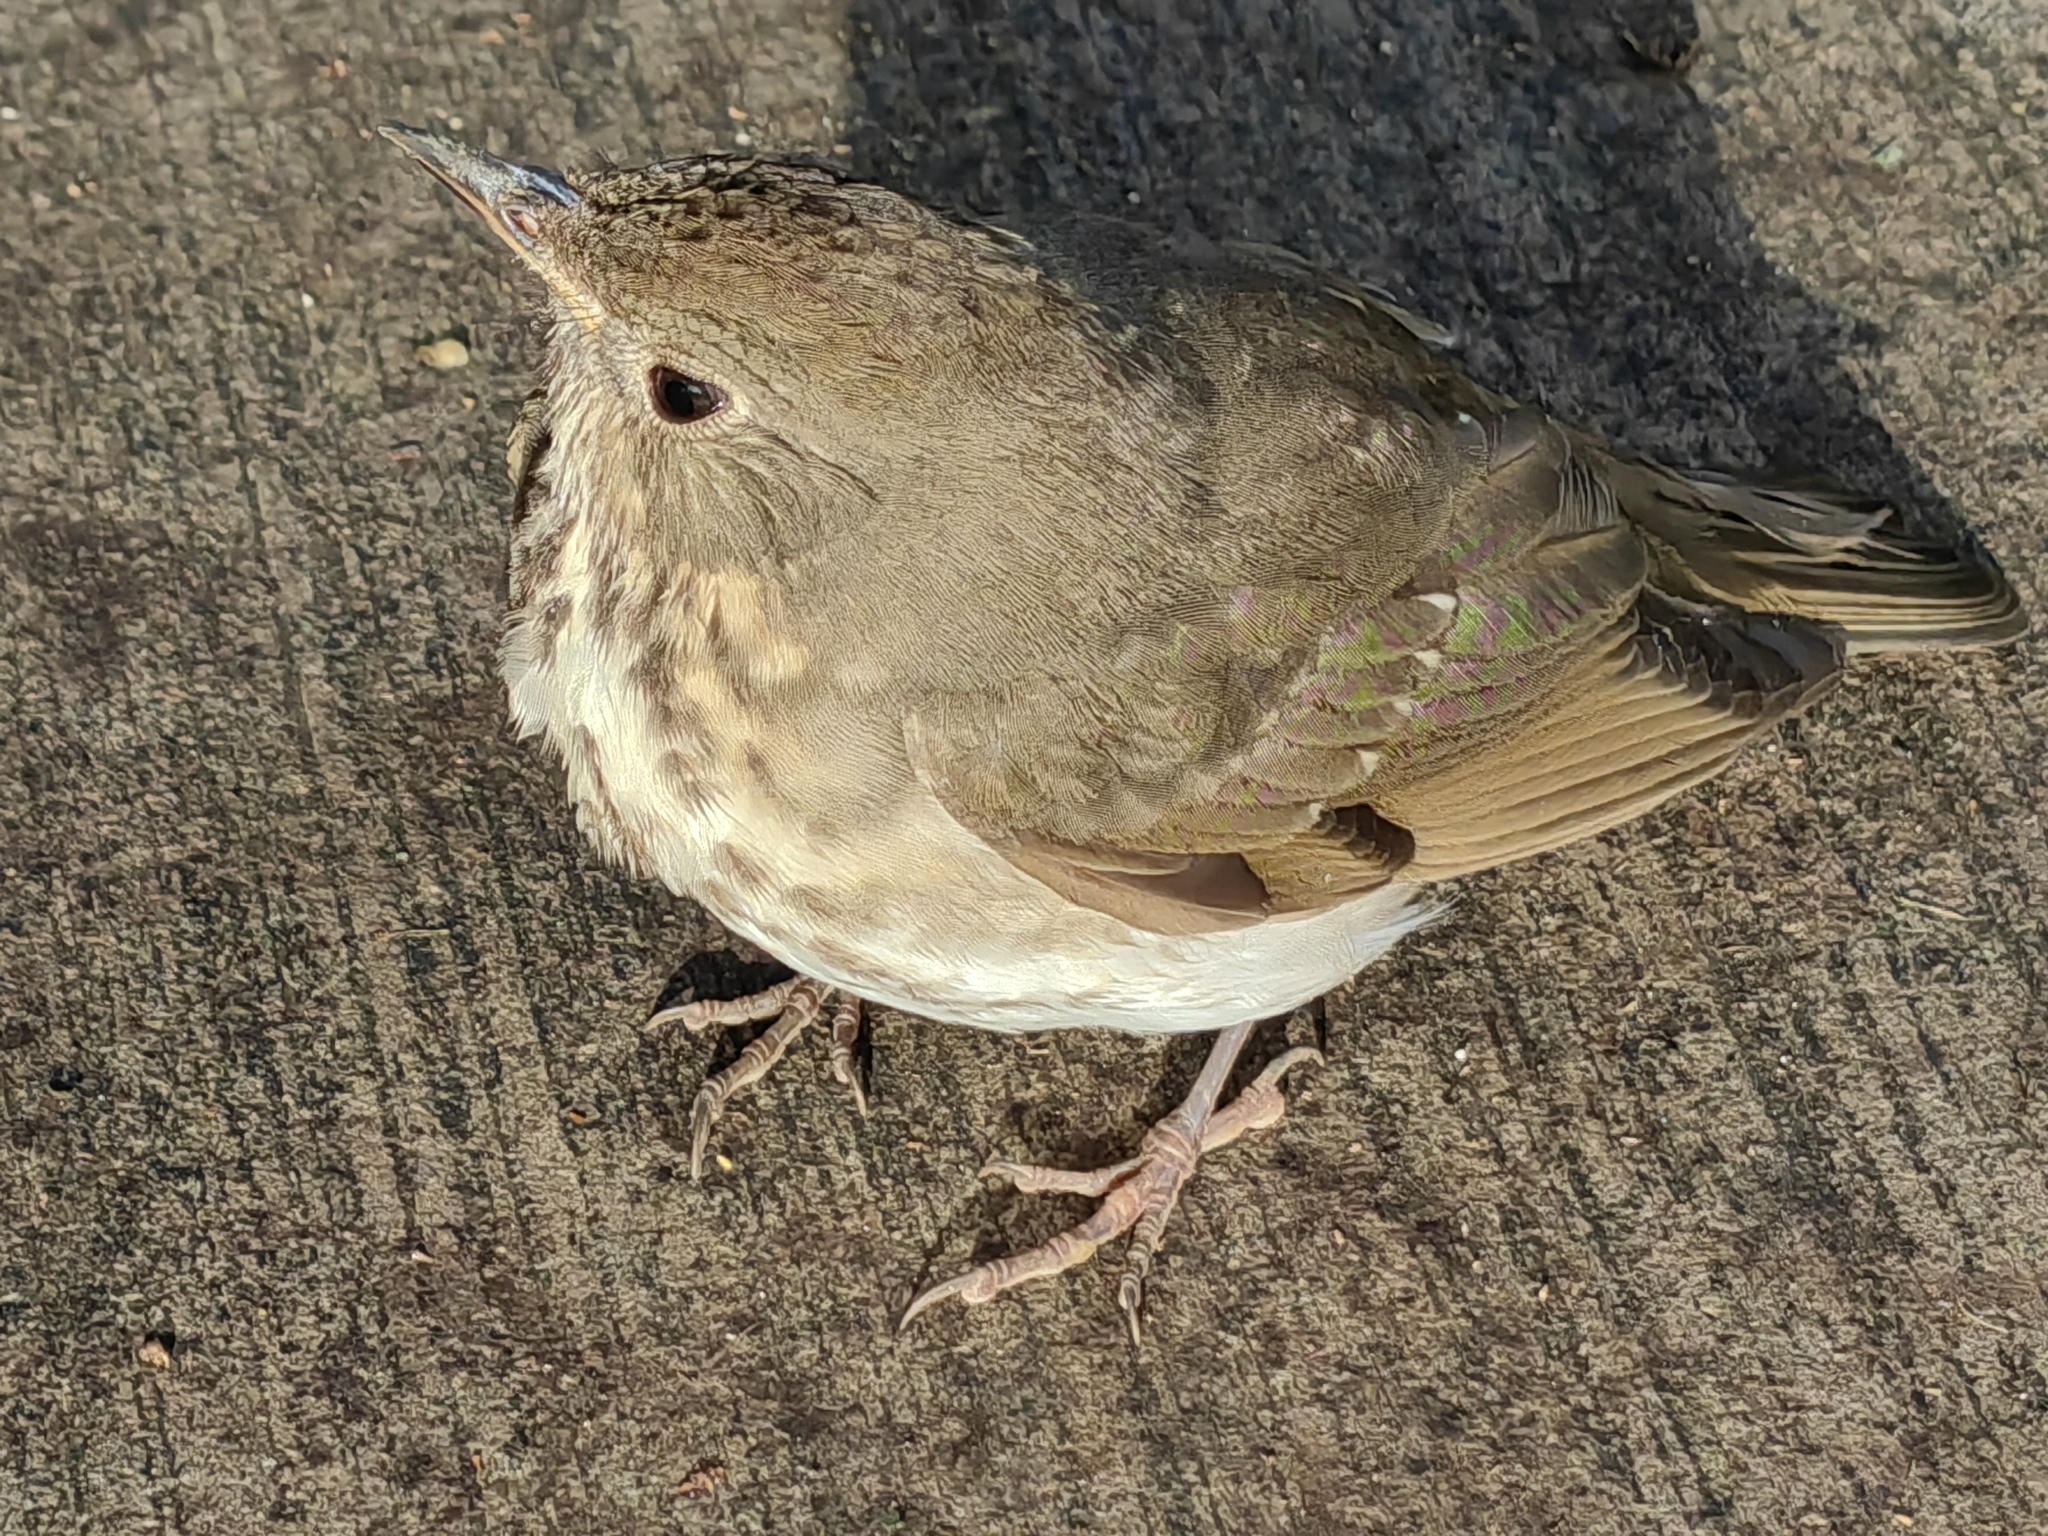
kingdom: Animalia
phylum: Chordata
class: Aves
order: Passeriformes
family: Turdidae
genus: Catharus
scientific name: Catharus ustulatus
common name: Swainson's thrush
